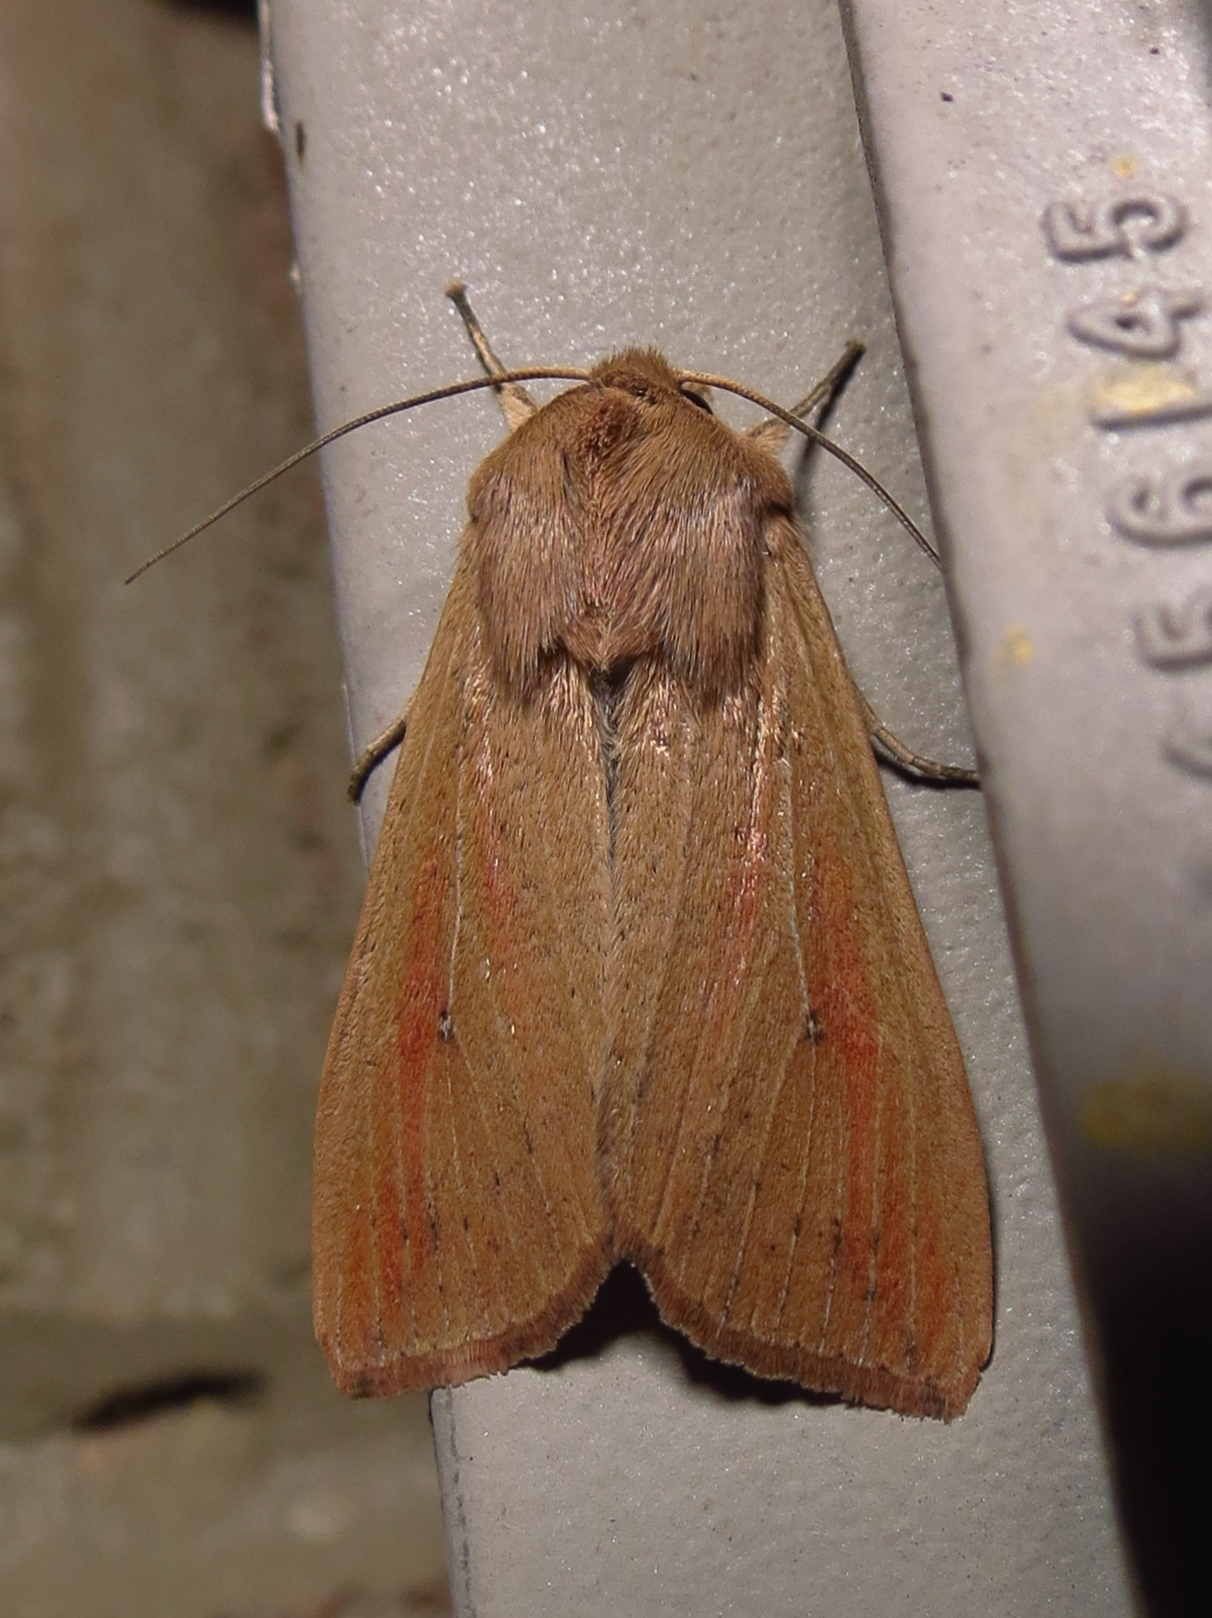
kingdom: Animalia
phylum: Arthropoda
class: Insecta
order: Lepidoptera
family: Noctuidae
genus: Mythimna
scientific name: Mythimna unipuncta
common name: White-speck
